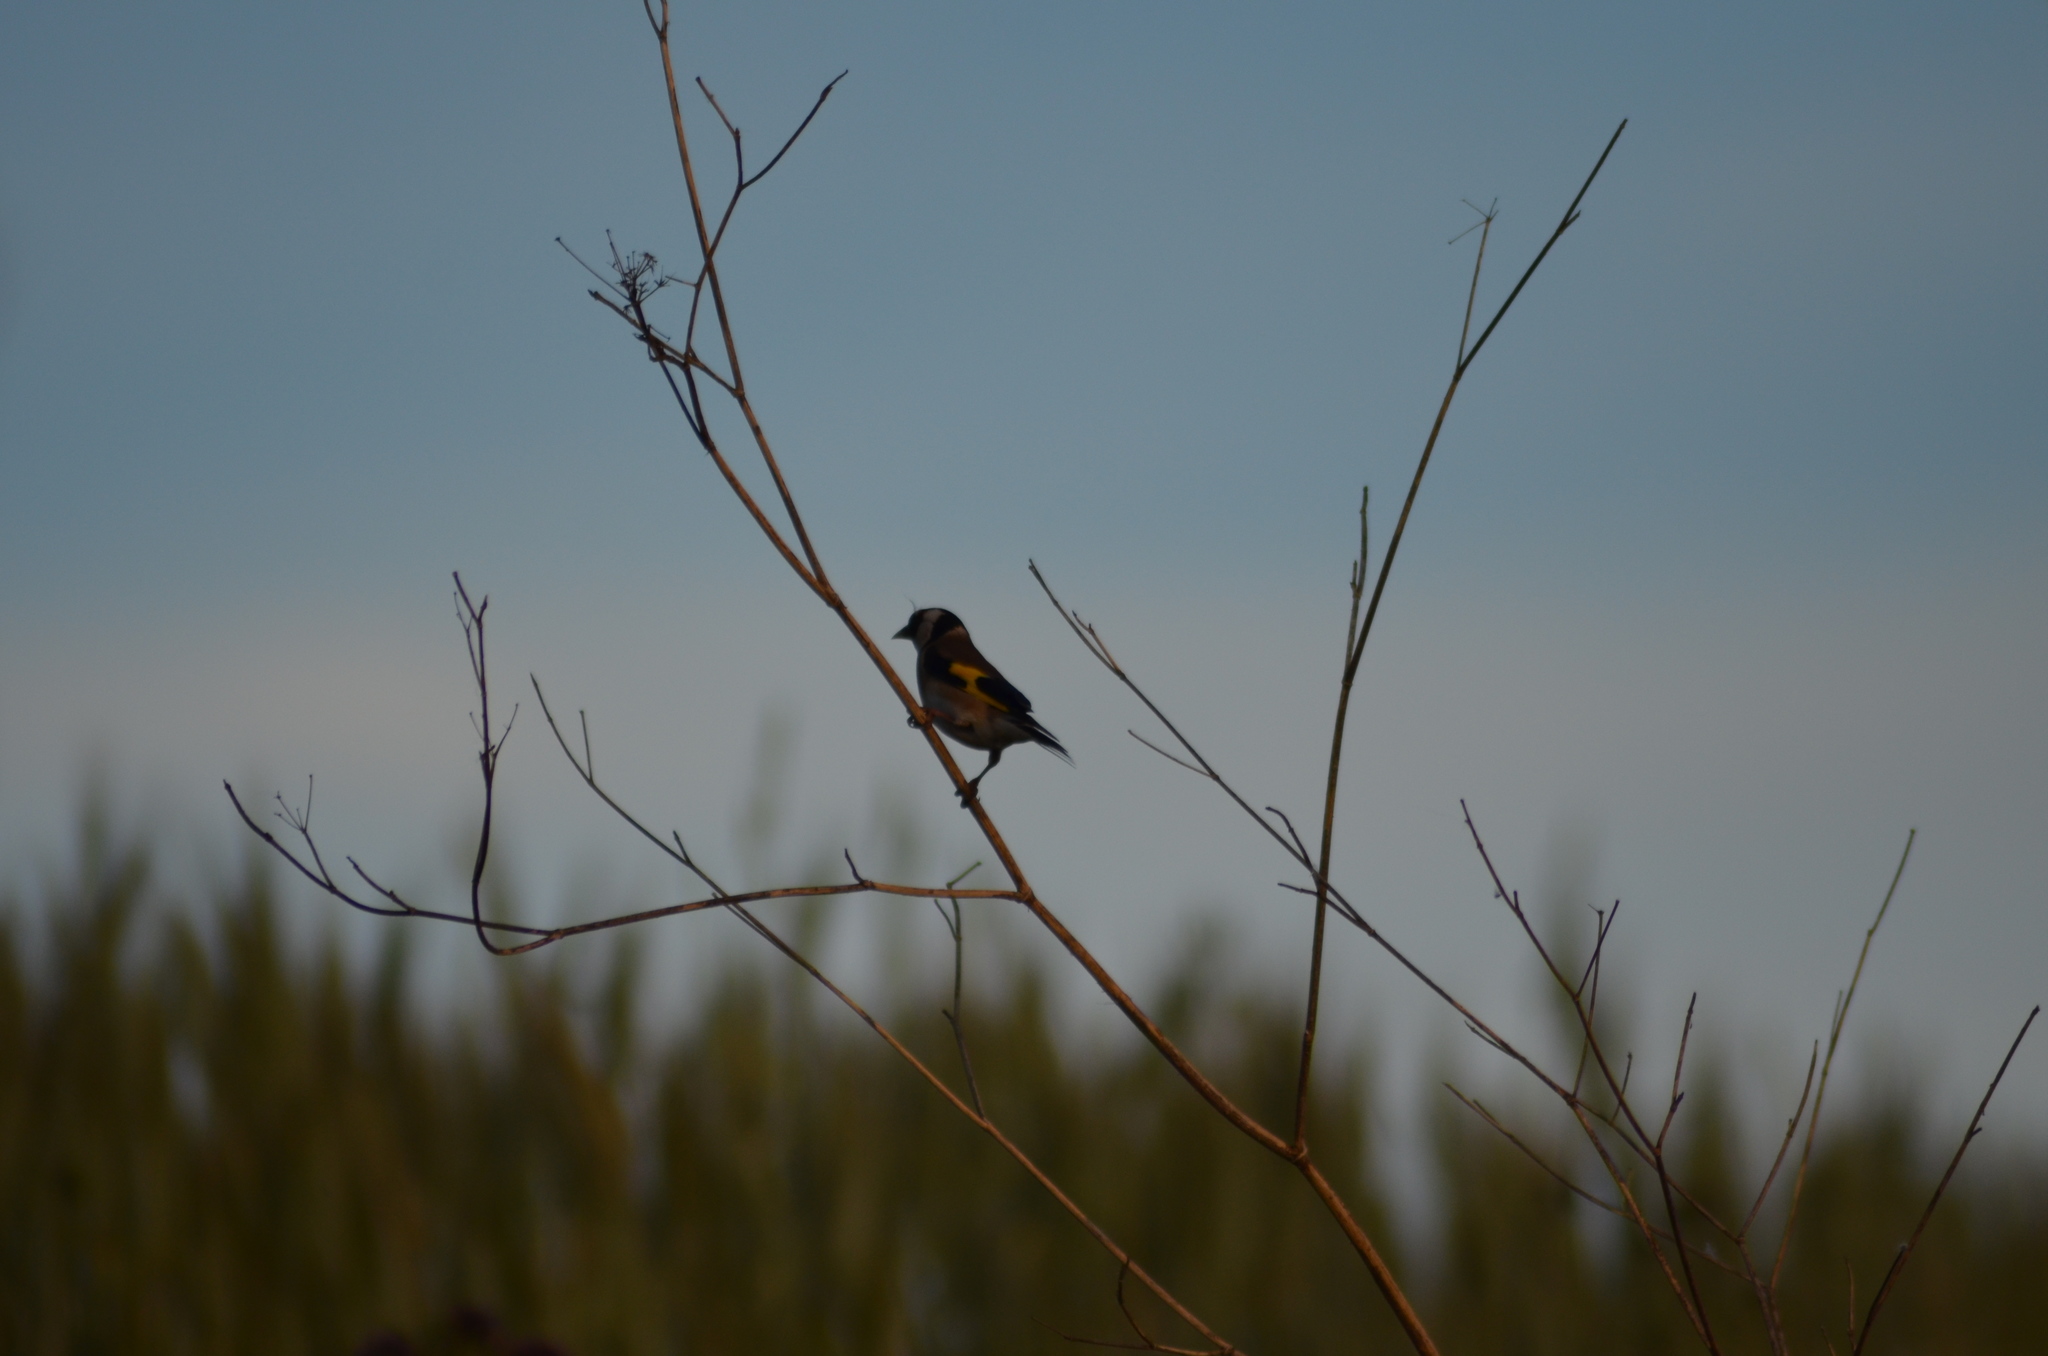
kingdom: Animalia
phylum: Chordata
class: Aves
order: Passeriformes
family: Fringillidae
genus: Carduelis
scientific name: Carduelis carduelis
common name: European goldfinch
